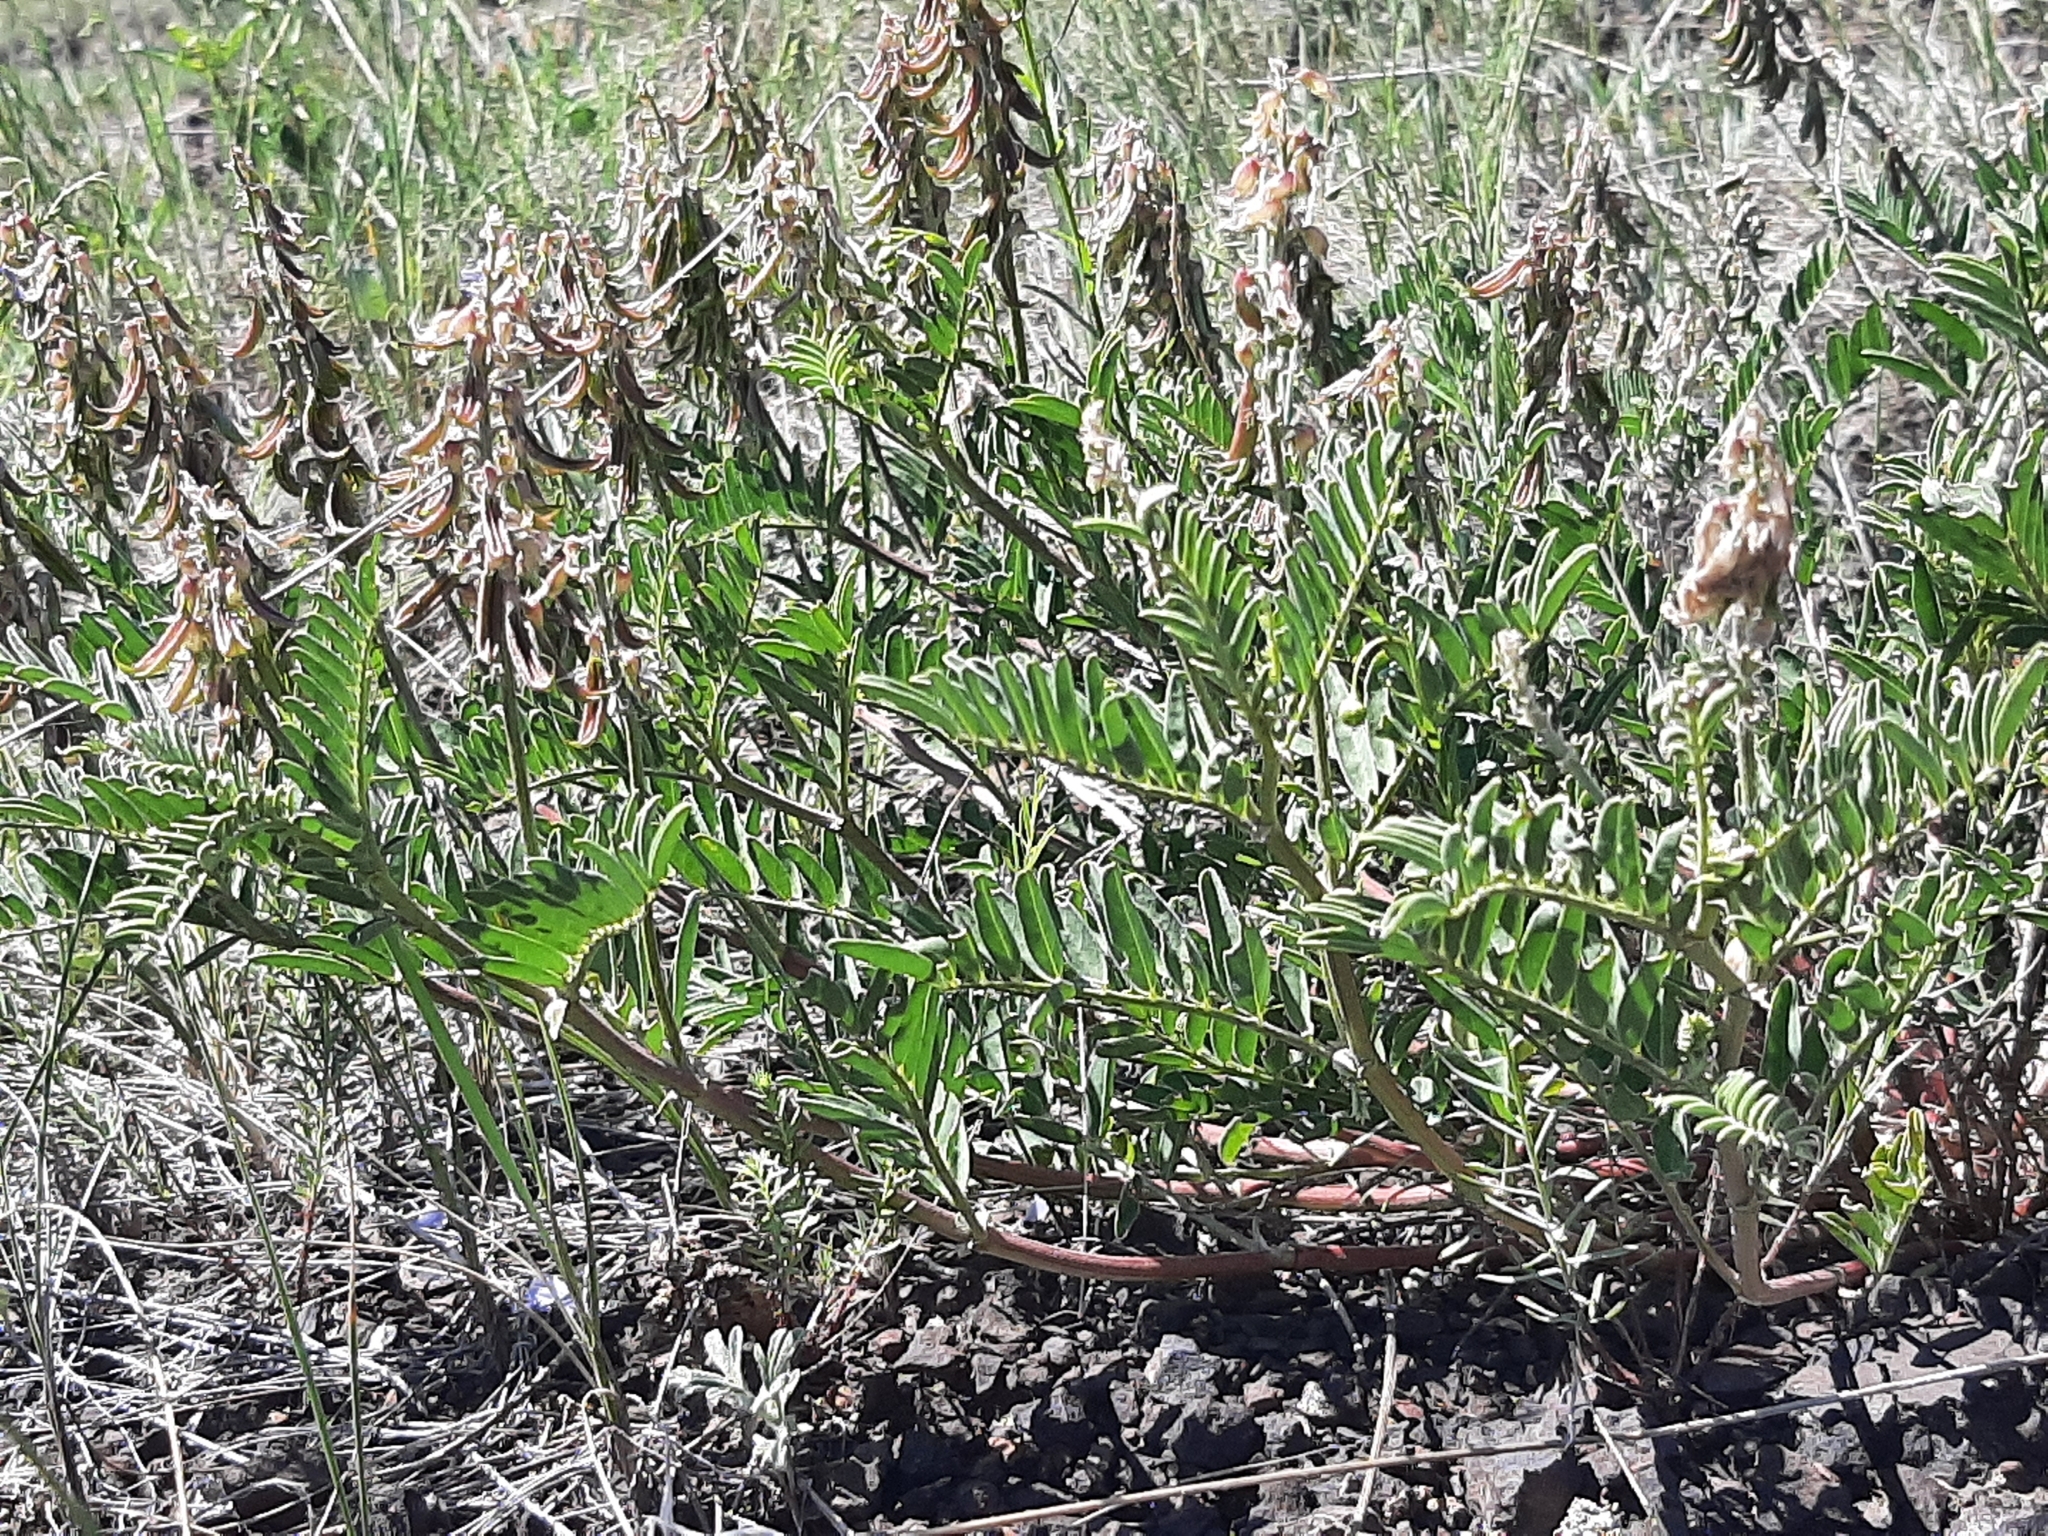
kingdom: Plantae
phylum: Tracheophyta
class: Magnoliopsida
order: Fabales
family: Fabaceae
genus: Astragalus
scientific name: Astragalus bisulcatus
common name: Two-groove milk-vetch
